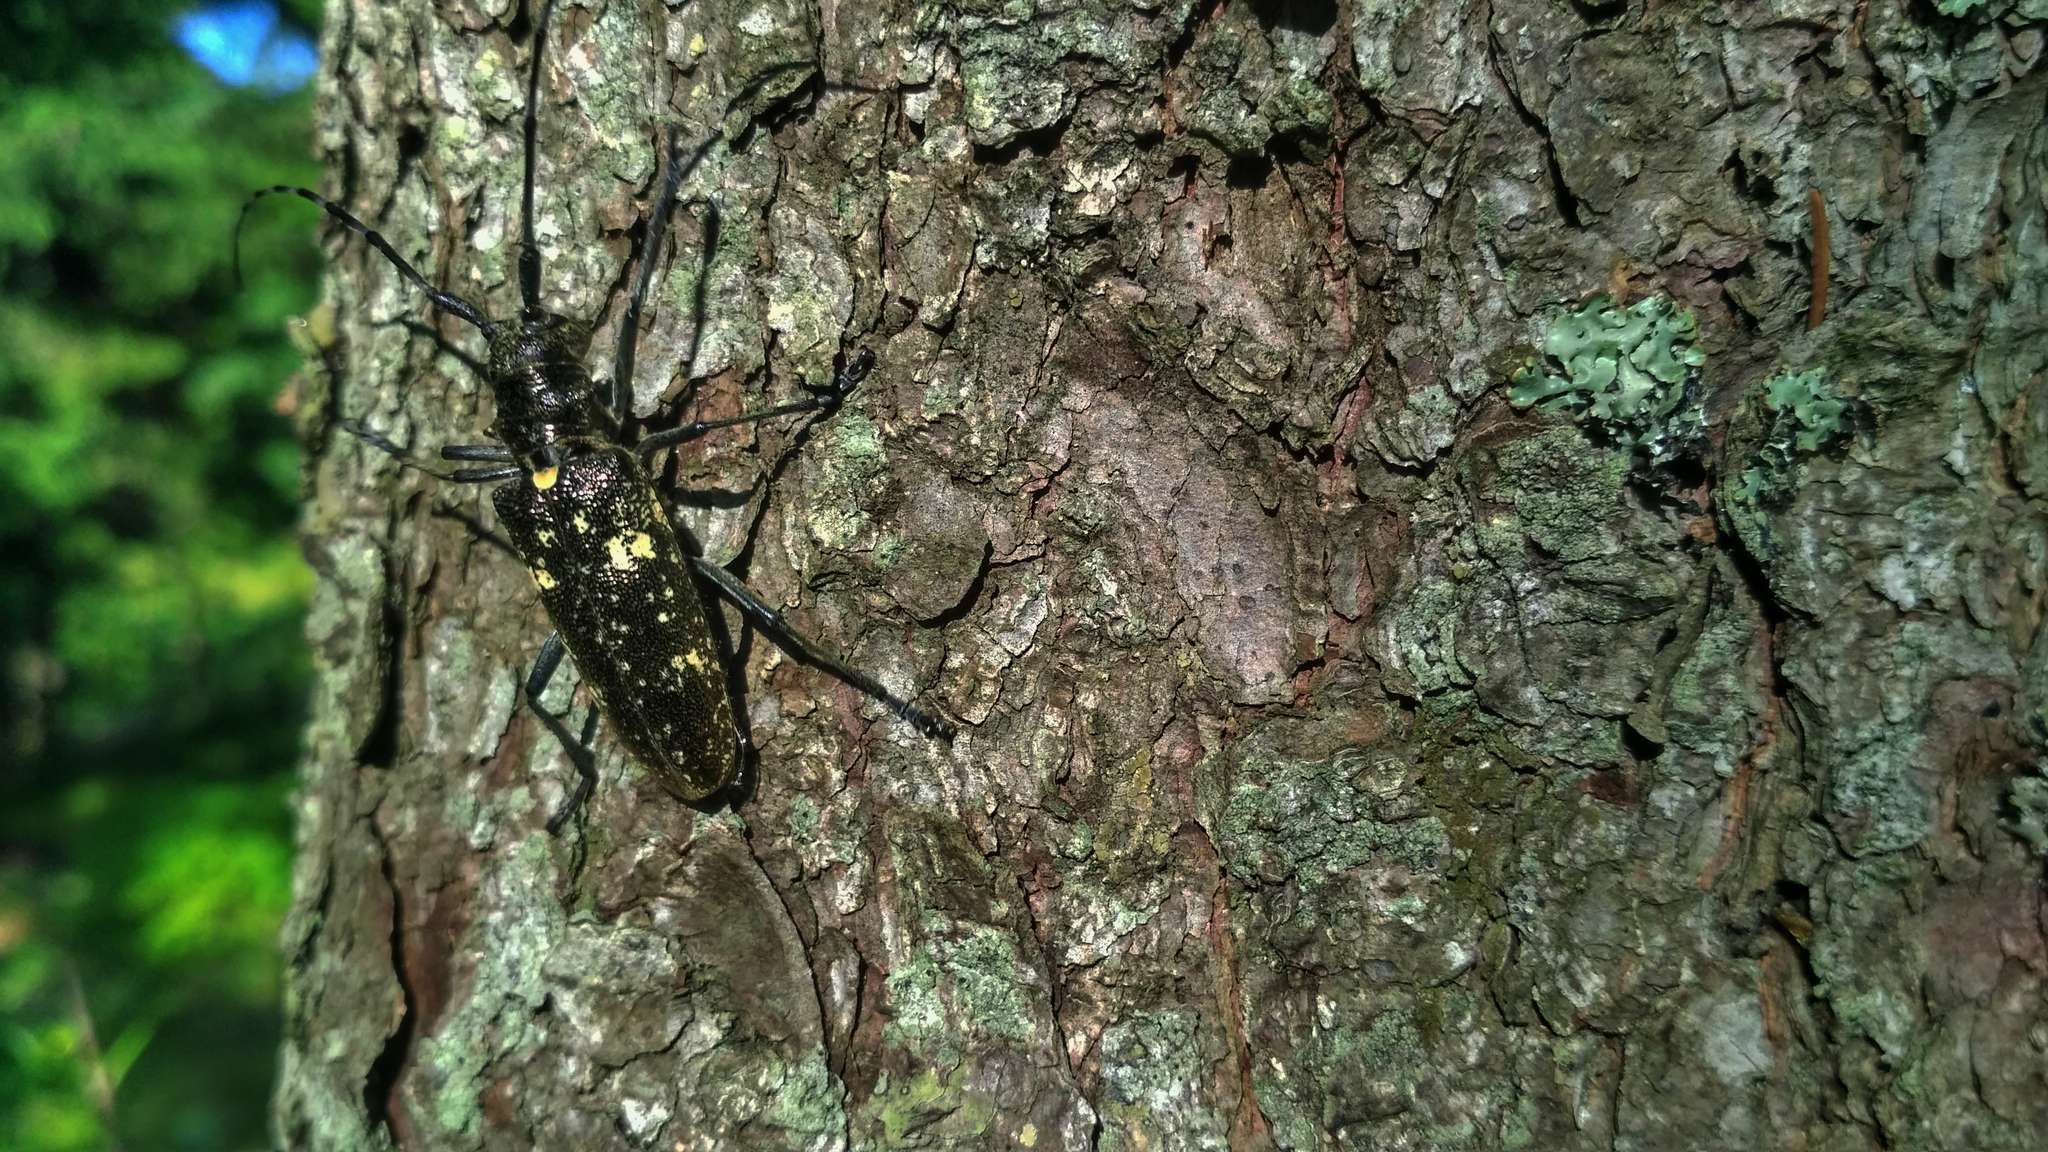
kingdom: Animalia
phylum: Arthropoda
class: Insecta
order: Coleoptera
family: Cerambycidae
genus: Monochamus
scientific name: Monochamus sartor
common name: Pine sawyer
